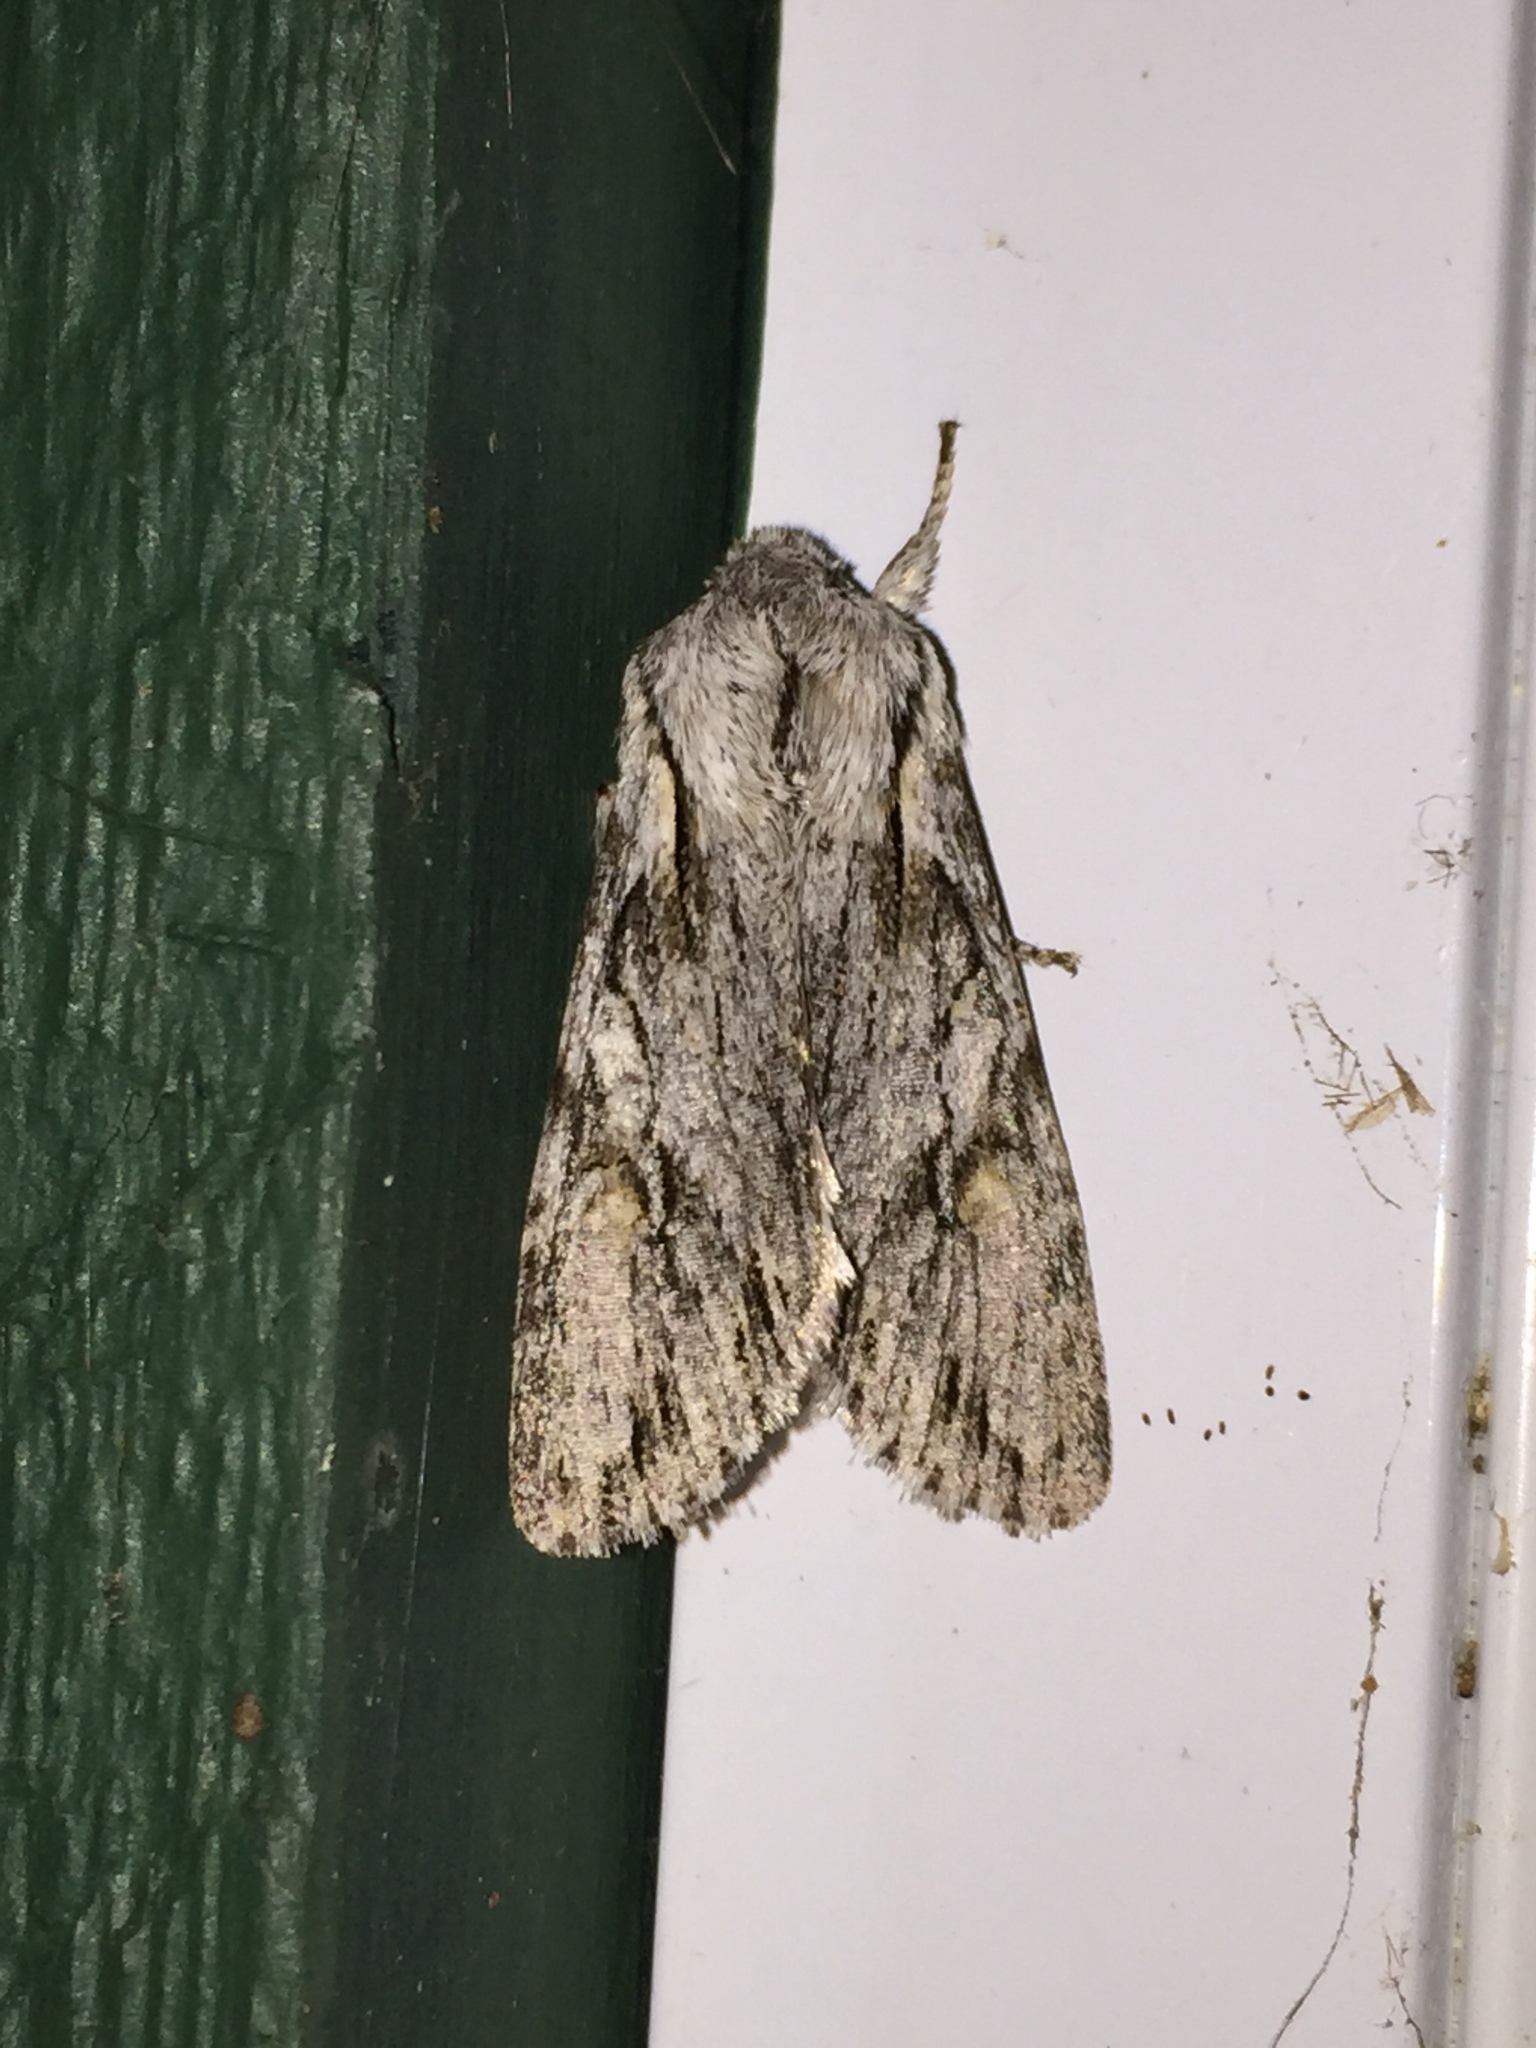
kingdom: Animalia
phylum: Arthropoda
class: Insecta
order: Lepidoptera
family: Noctuidae
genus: Egira
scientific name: Egira crucialis
